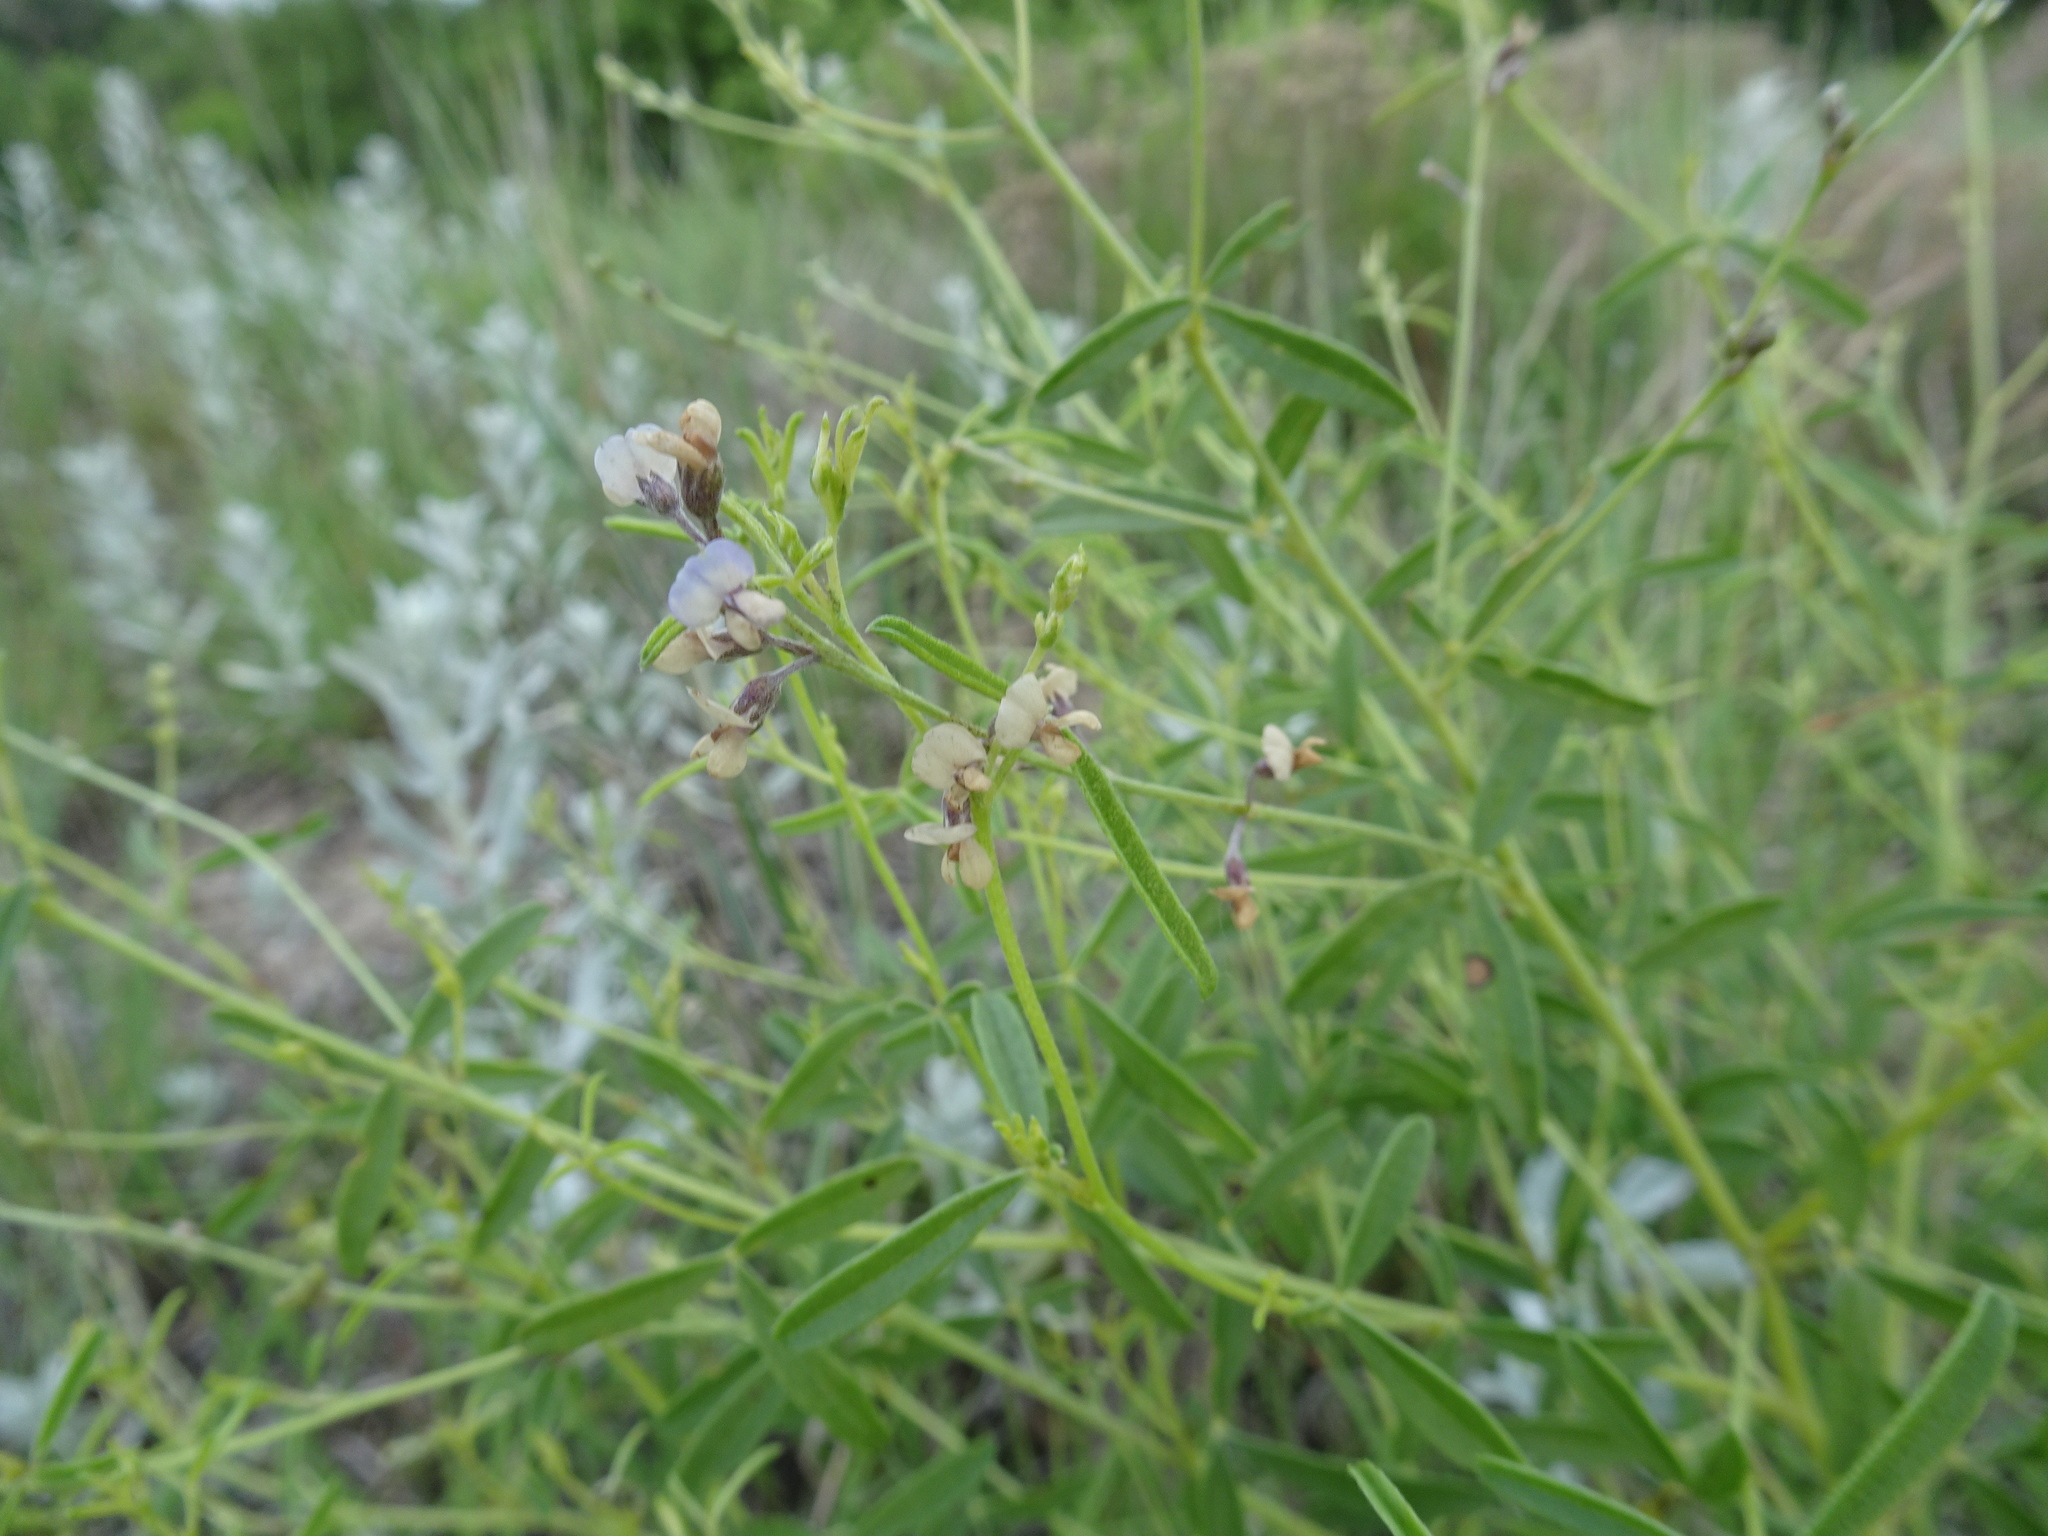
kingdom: Plantae
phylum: Tracheophyta
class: Magnoliopsida
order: Fabales
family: Fabaceae
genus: Pediomelum
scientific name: Pediomelum tenuiflorum
